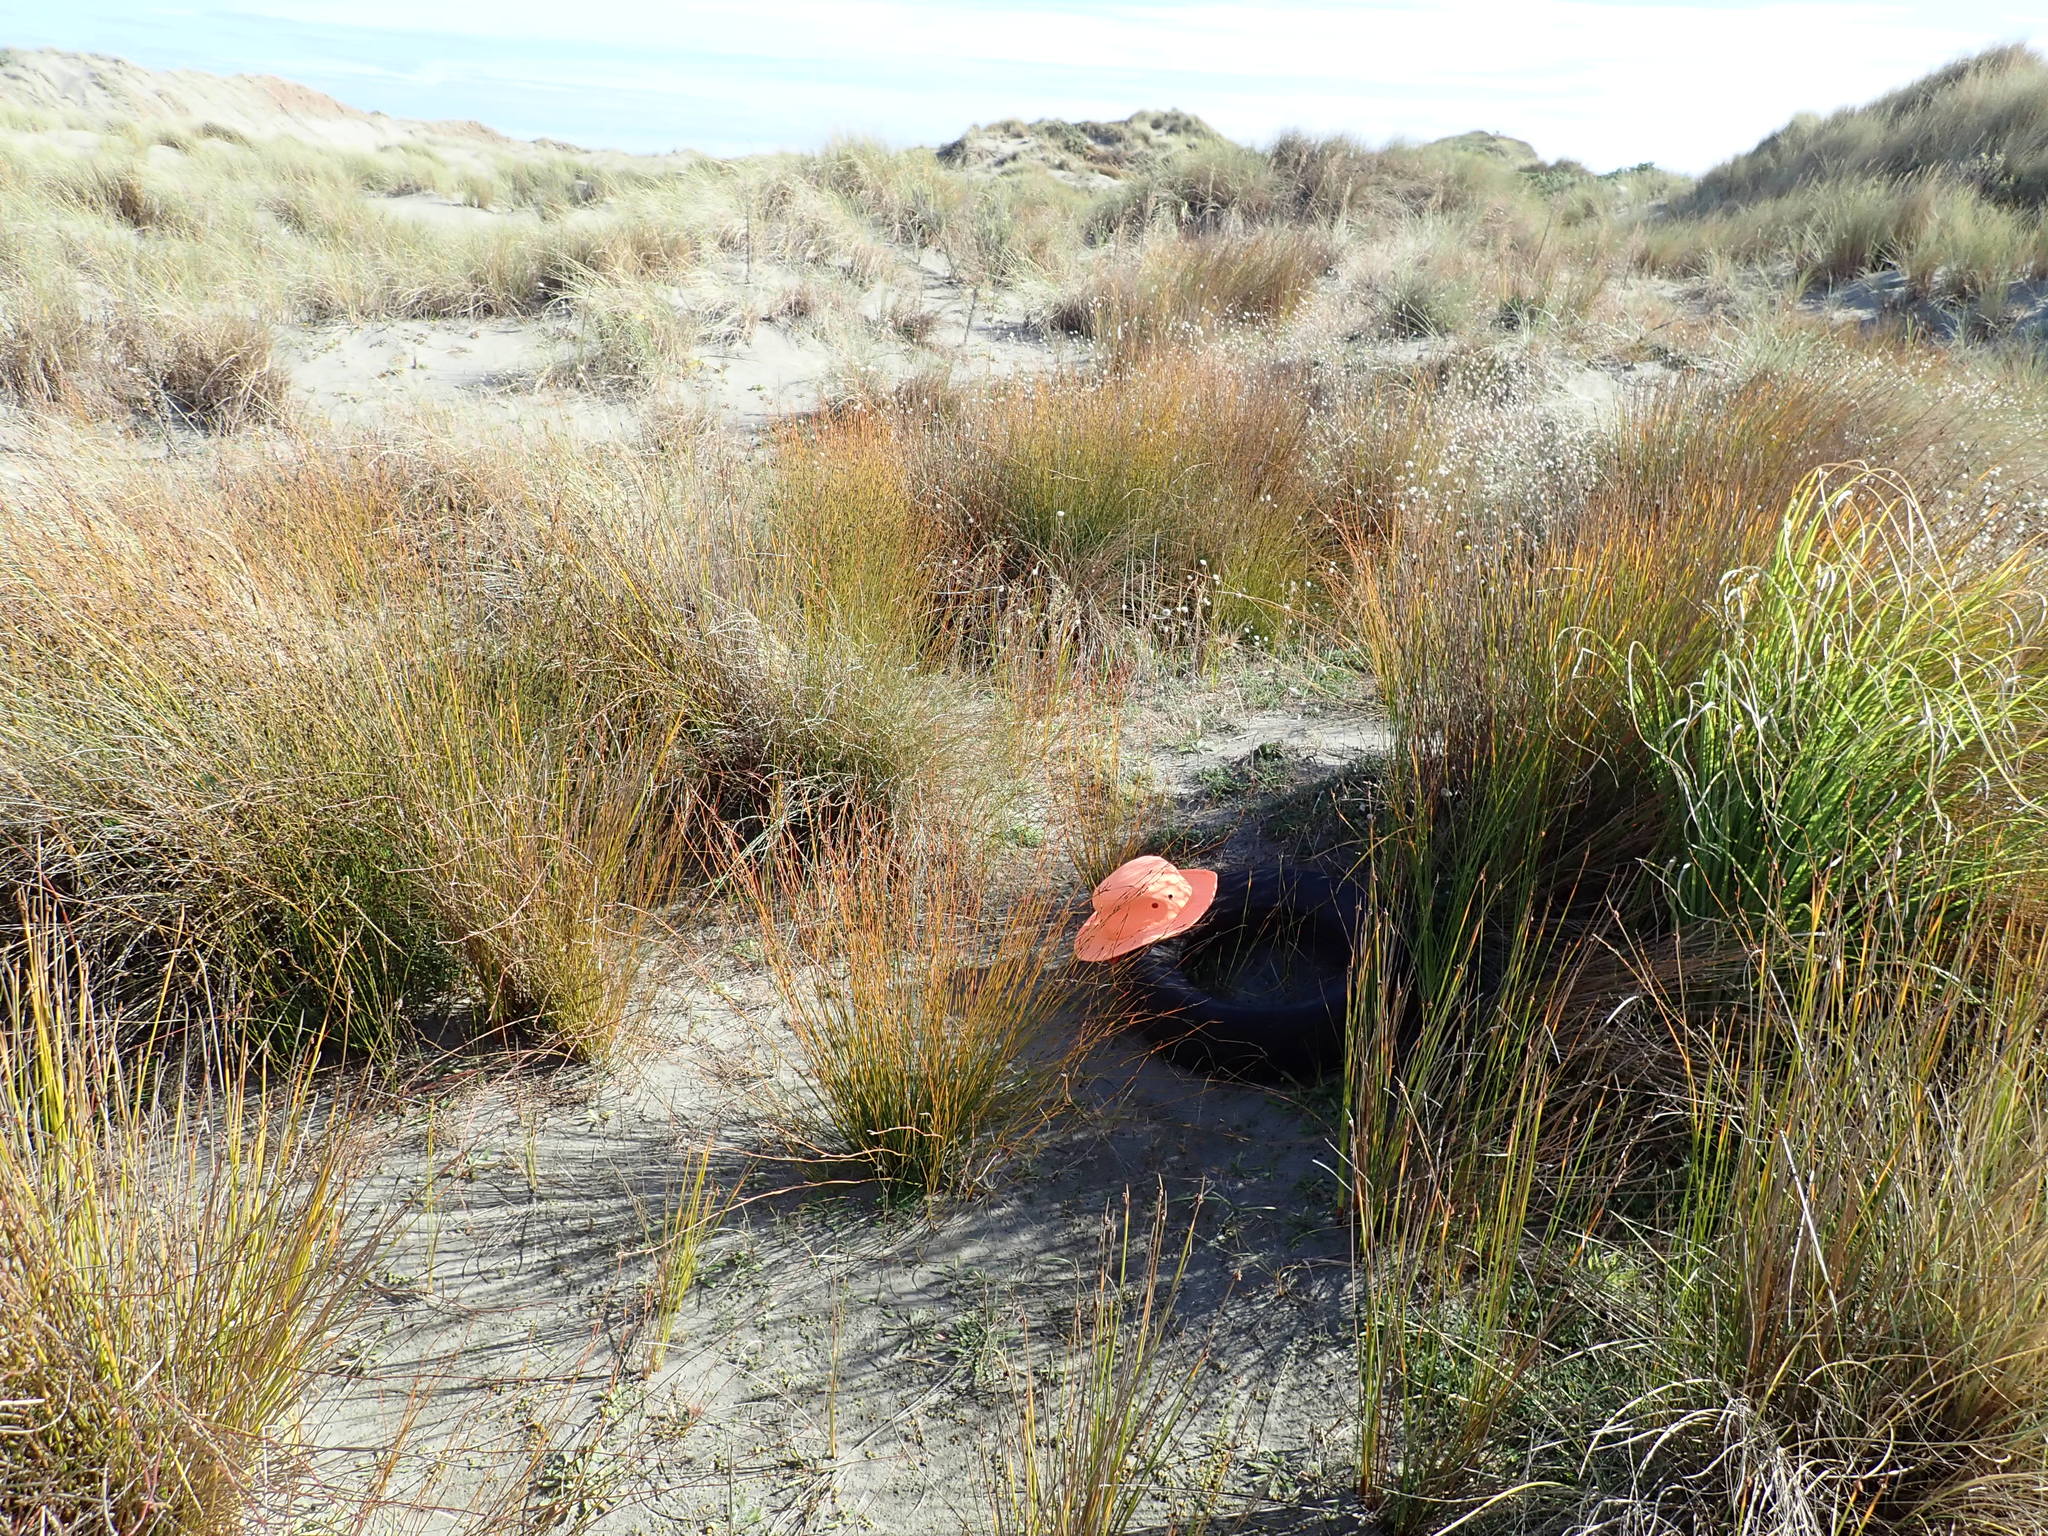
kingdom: Animalia
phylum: Arthropoda
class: Arachnida
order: Araneae
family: Theridiidae
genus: Latrodectus
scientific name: Latrodectus katipo
